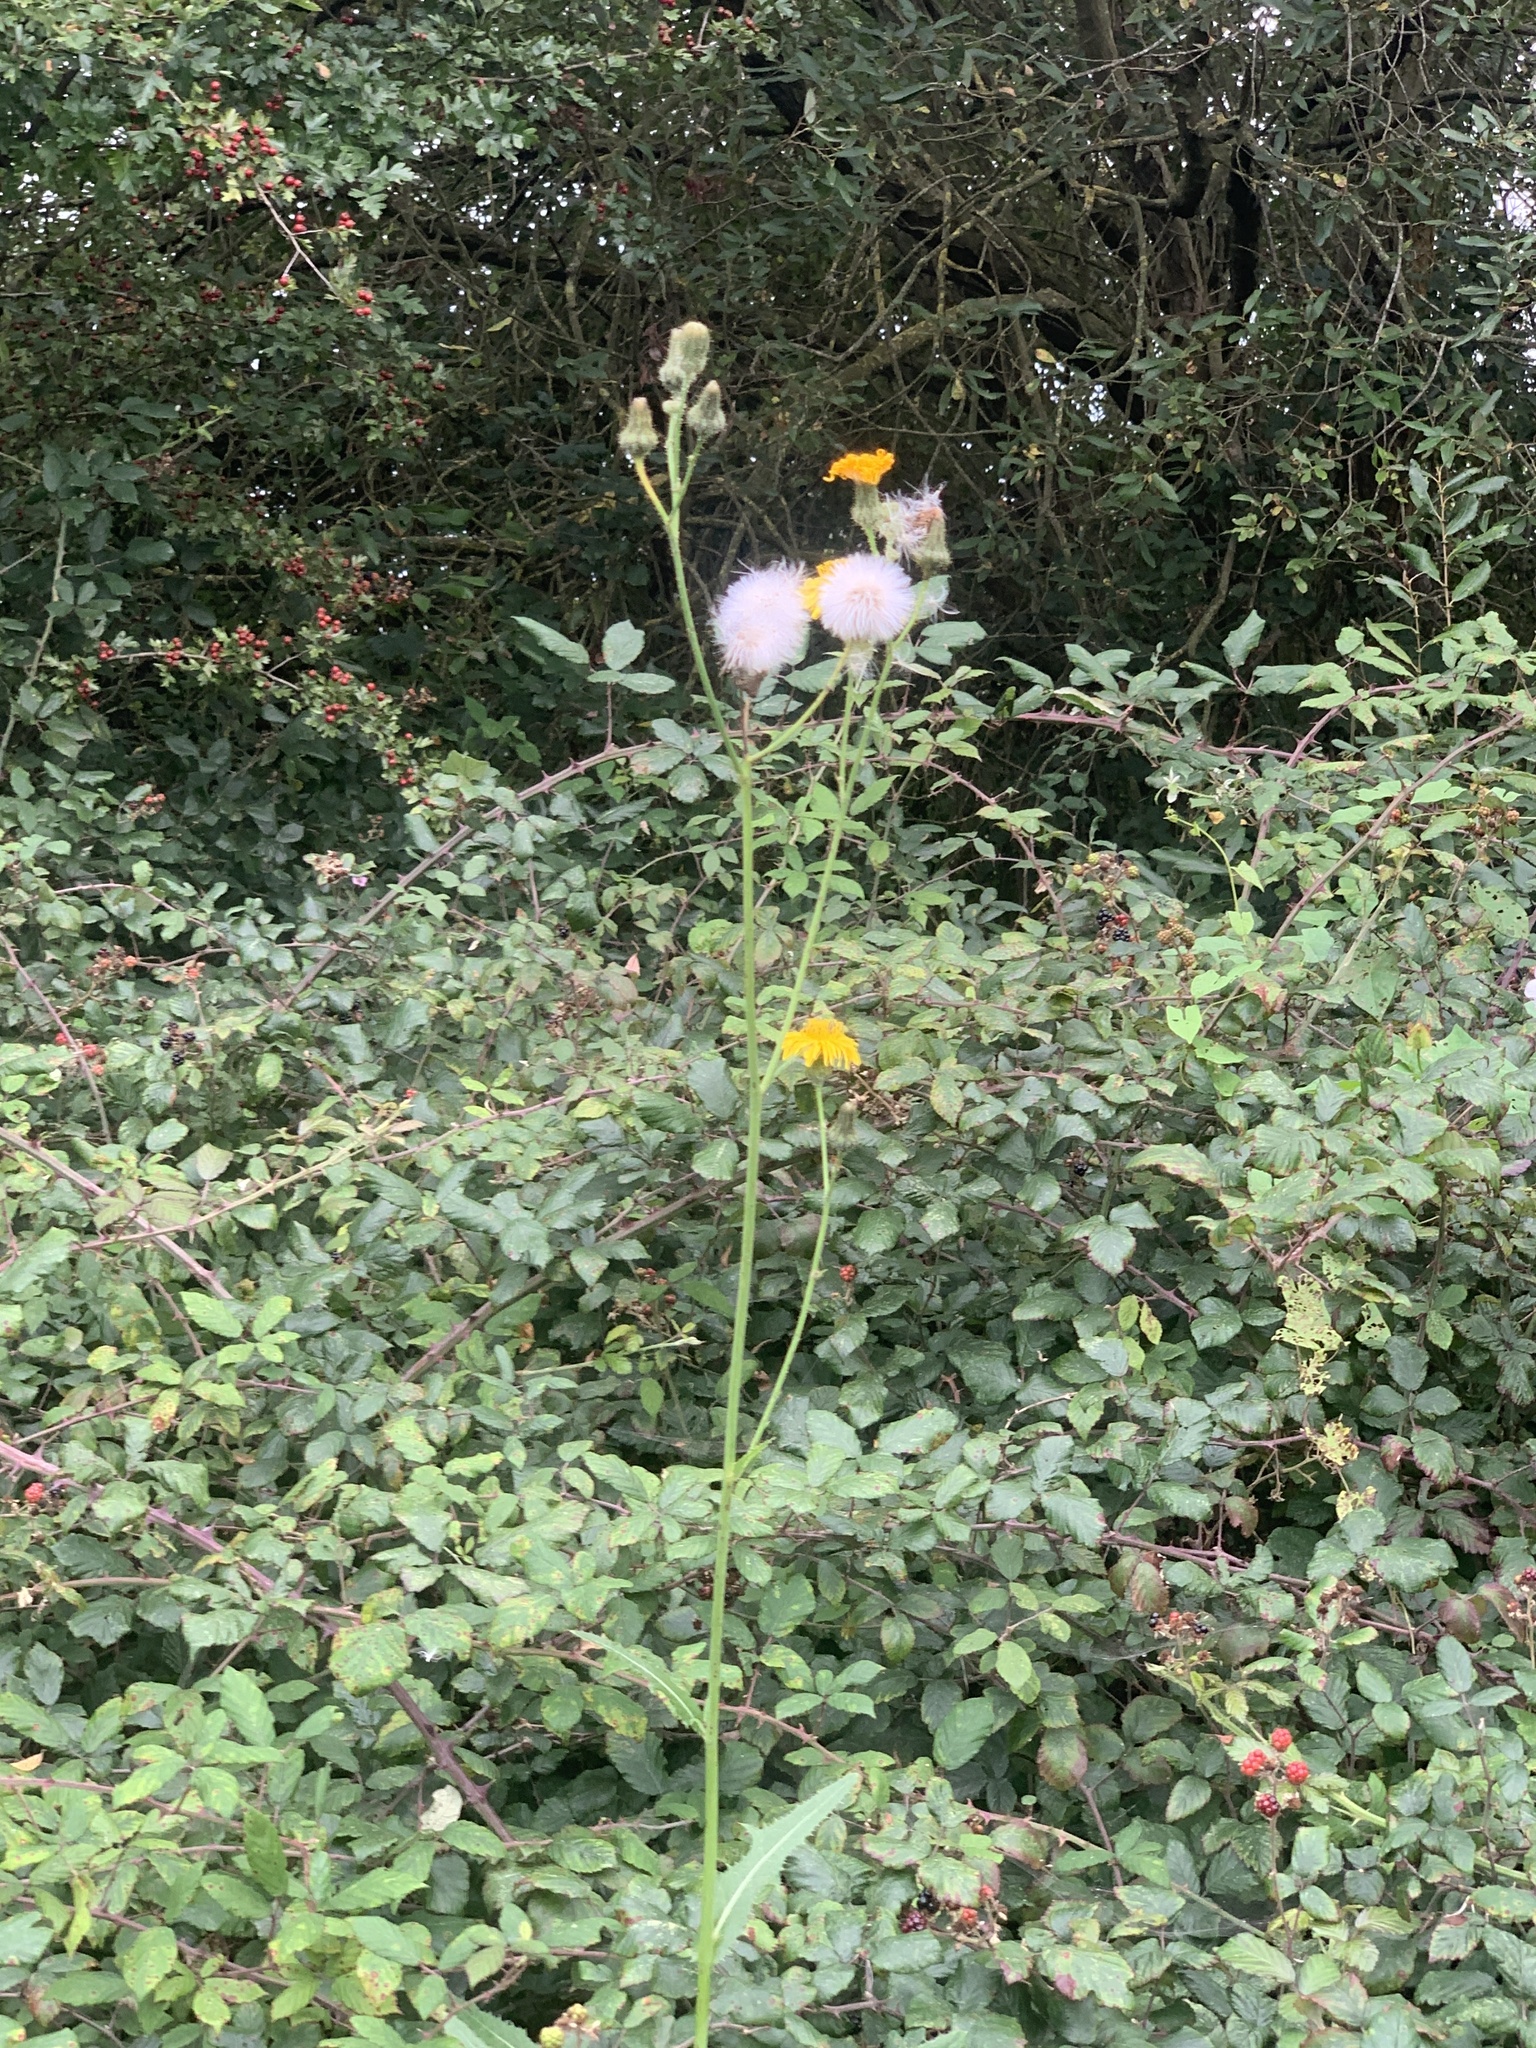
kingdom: Plantae
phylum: Tracheophyta
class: Magnoliopsida
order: Asterales
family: Asteraceae
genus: Sonchus
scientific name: Sonchus arvensis
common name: Perennial sow-thistle
